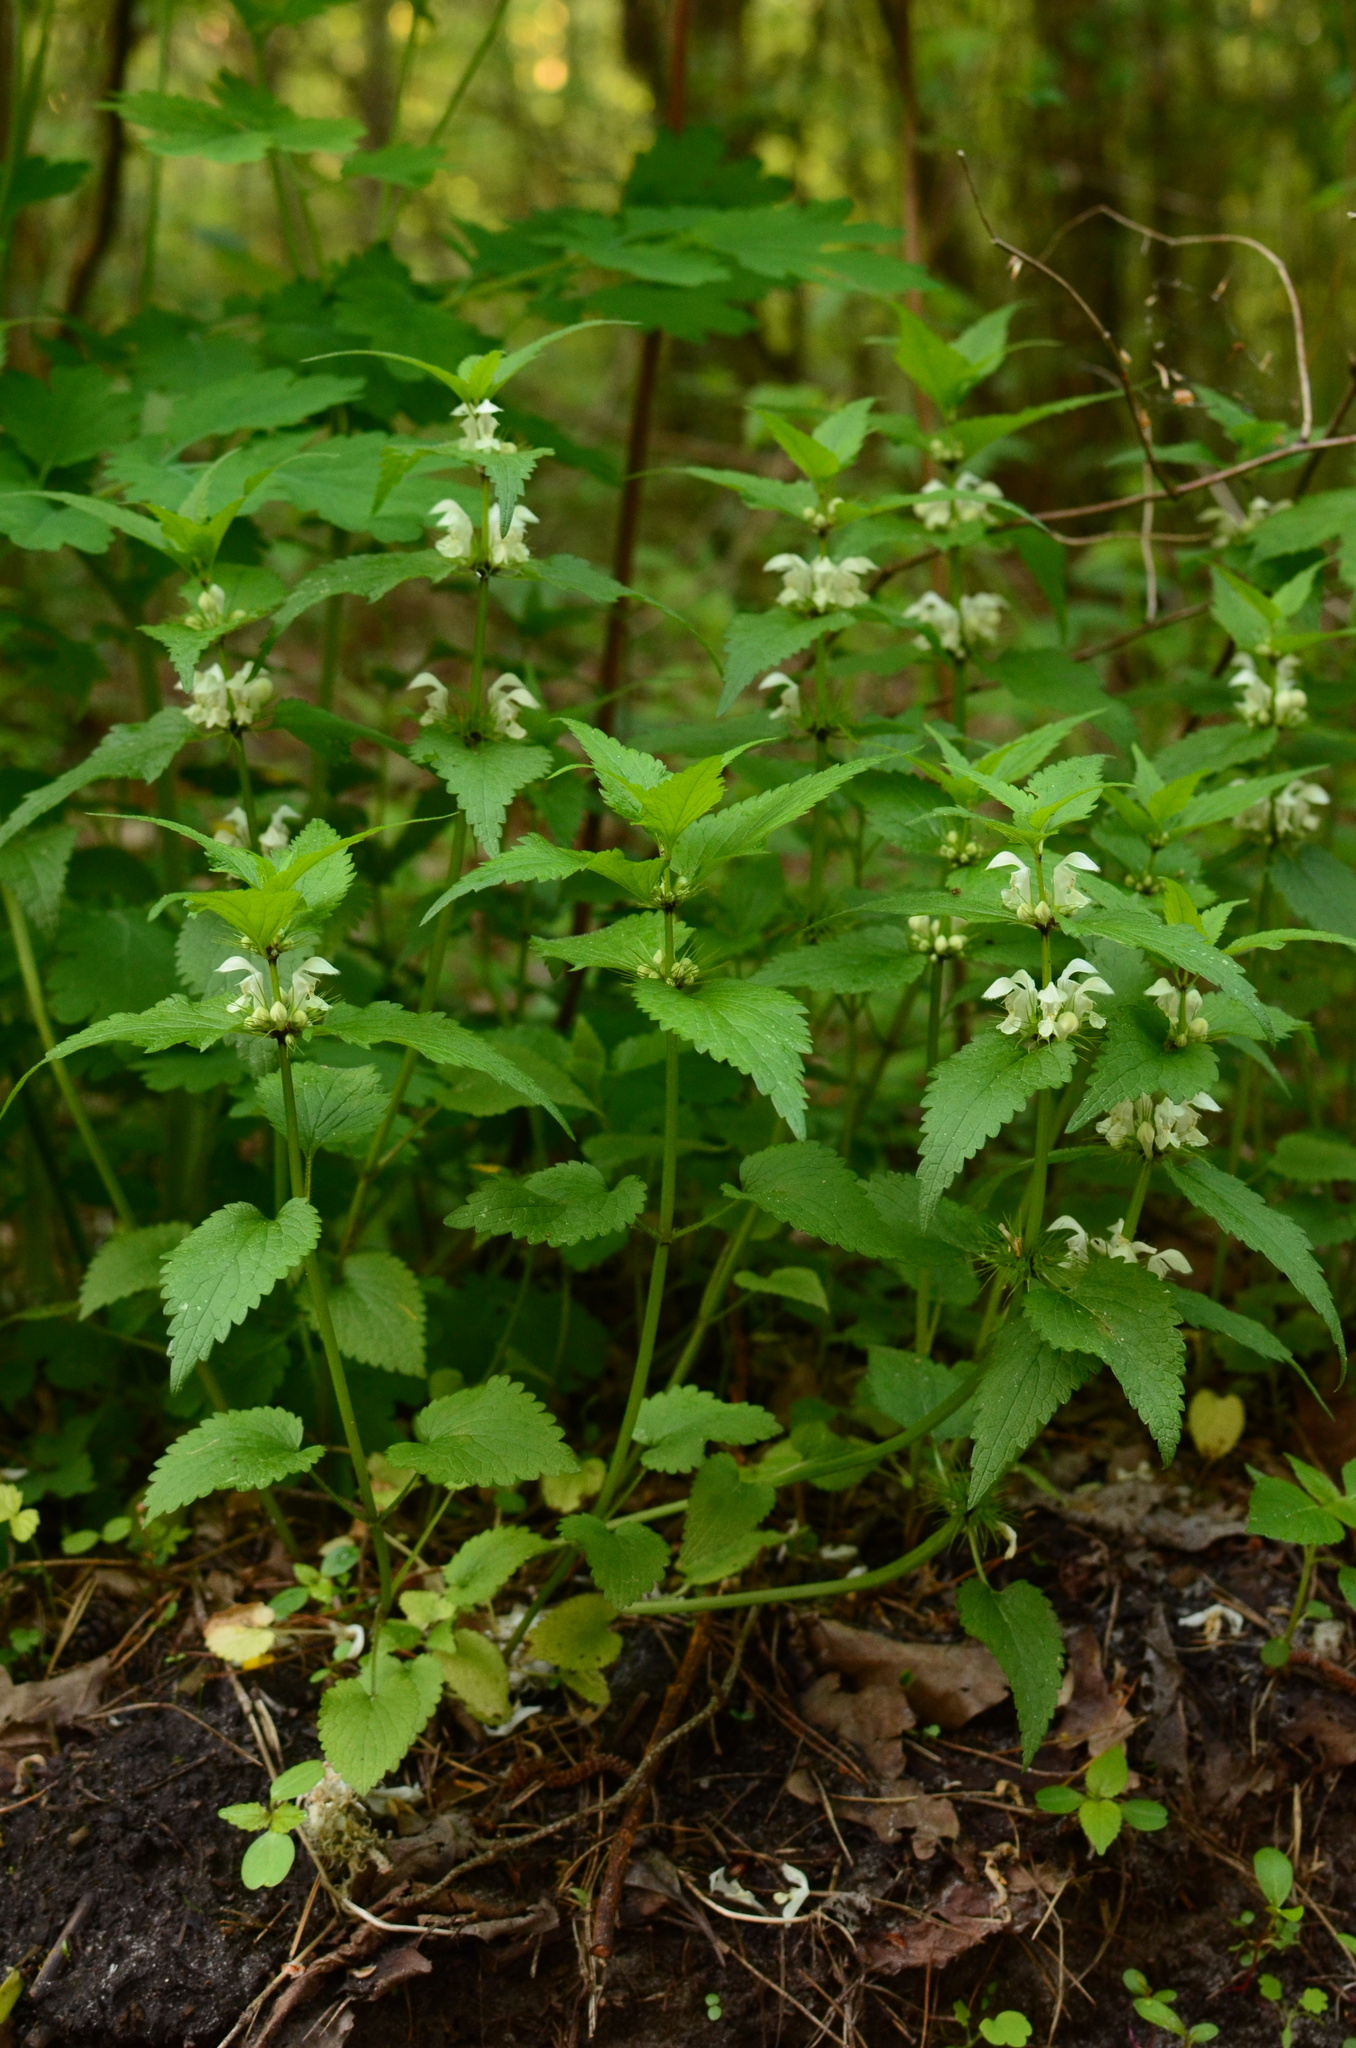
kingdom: Plantae
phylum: Tracheophyta
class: Magnoliopsida
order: Lamiales
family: Lamiaceae
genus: Lamium
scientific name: Lamium album
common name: White dead-nettle
